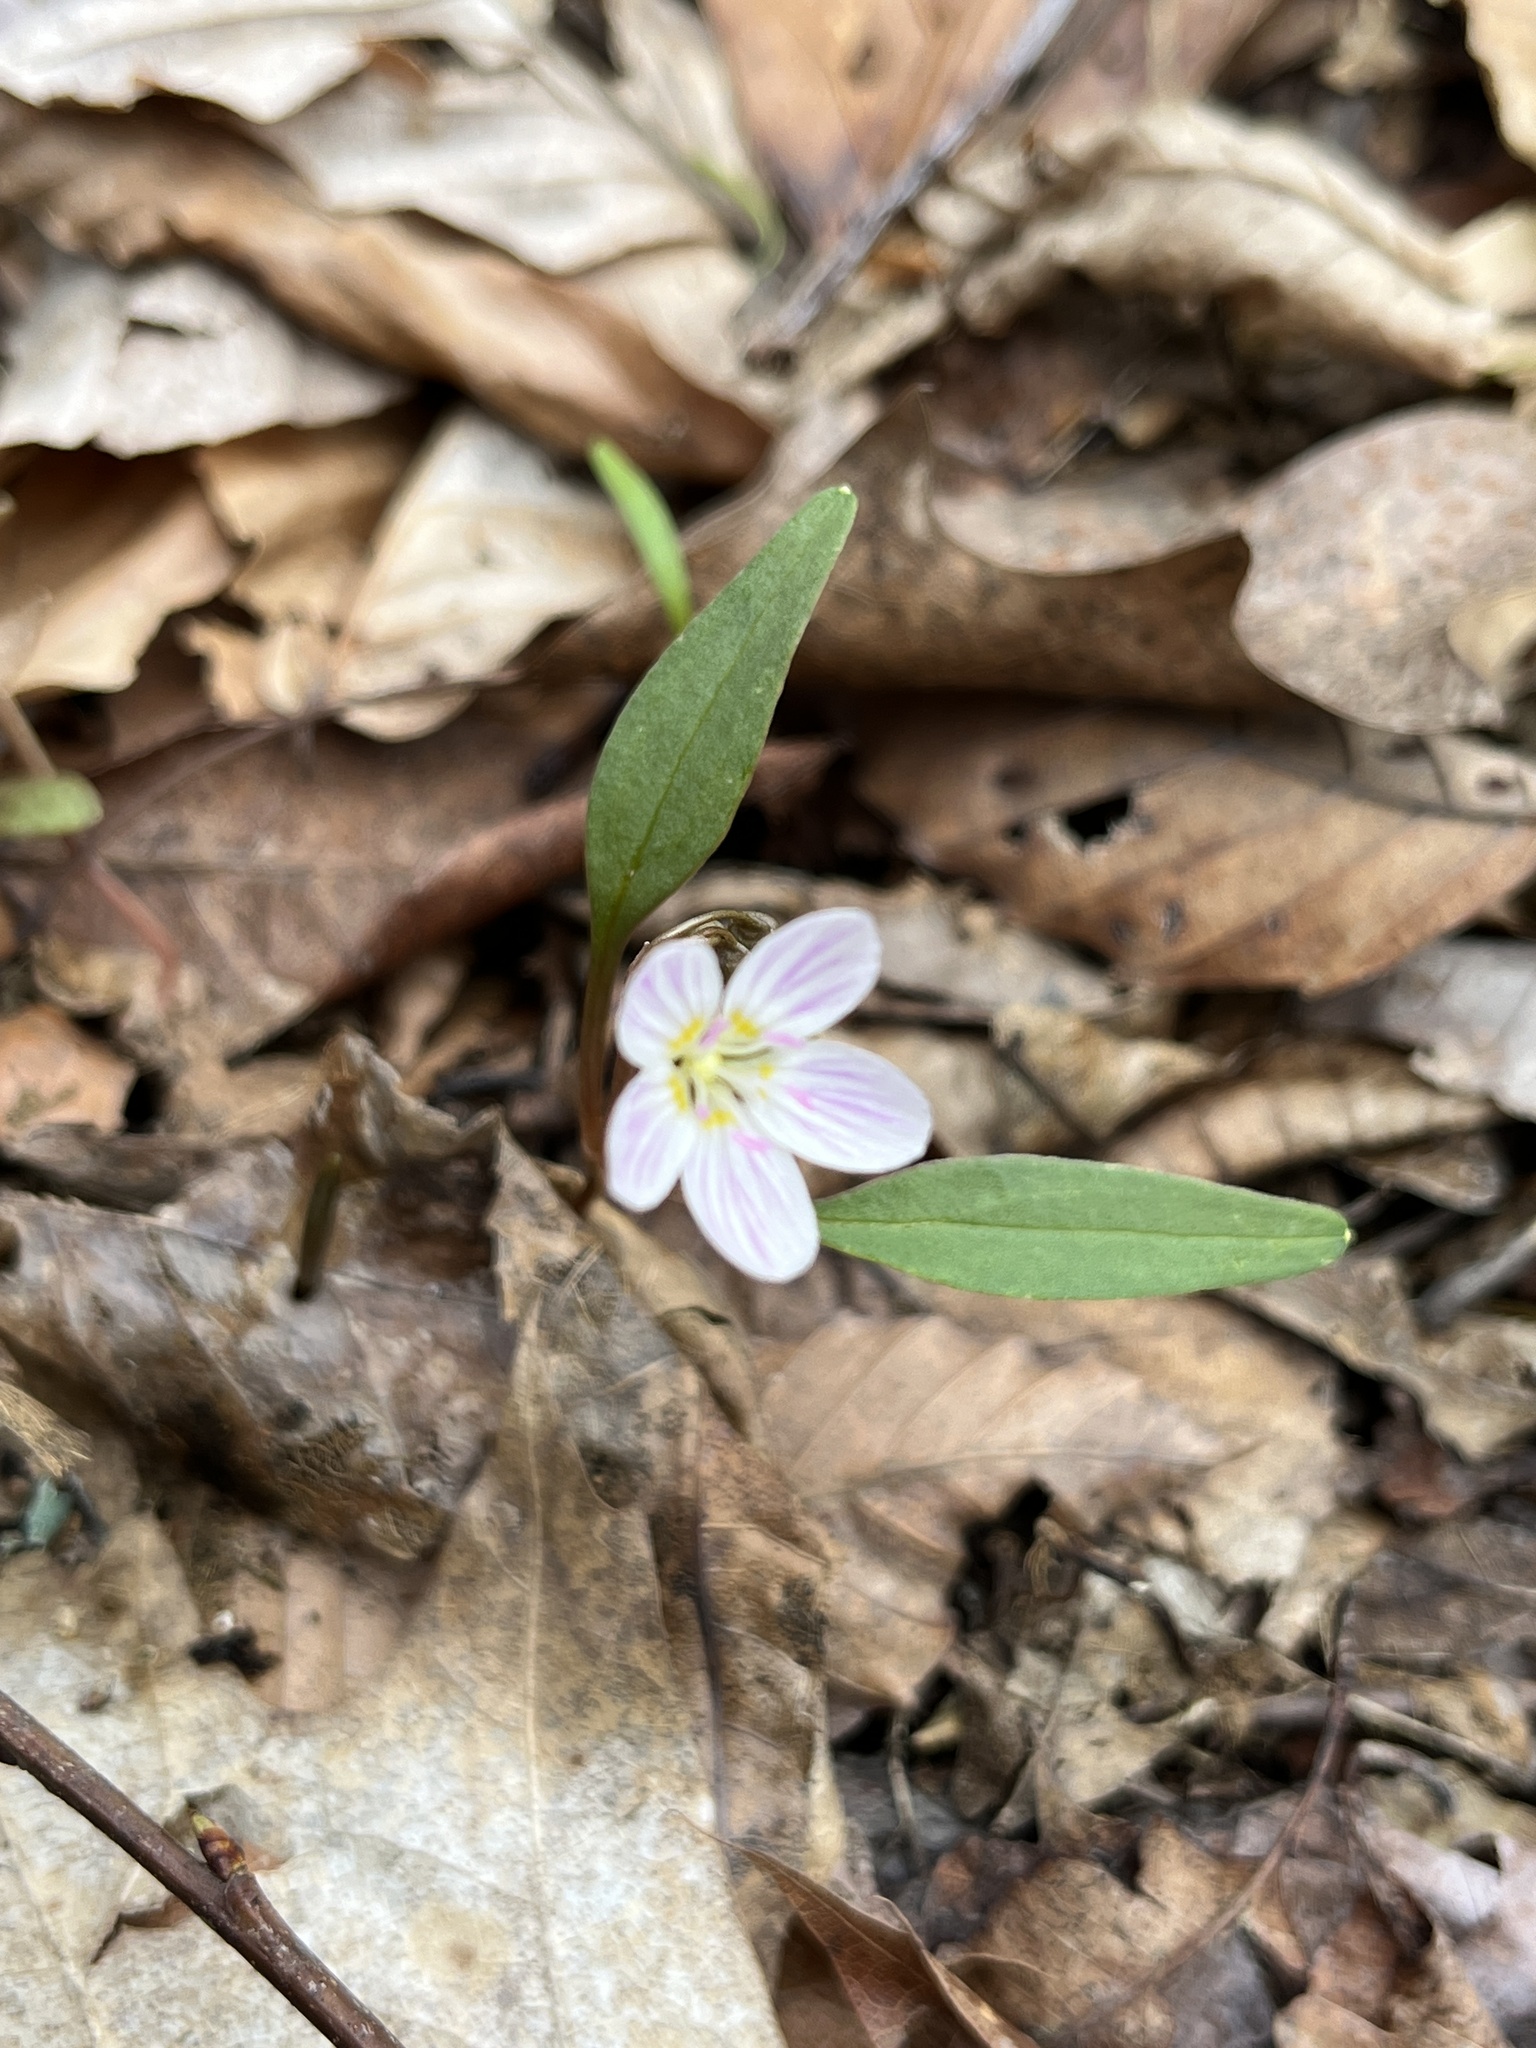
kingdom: Plantae
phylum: Tracheophyta
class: Magnoliopsida
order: Caryophyllales
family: Montiaceae
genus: Claytonia
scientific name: Claytonia caroliniana
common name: Carolina spring beauty
